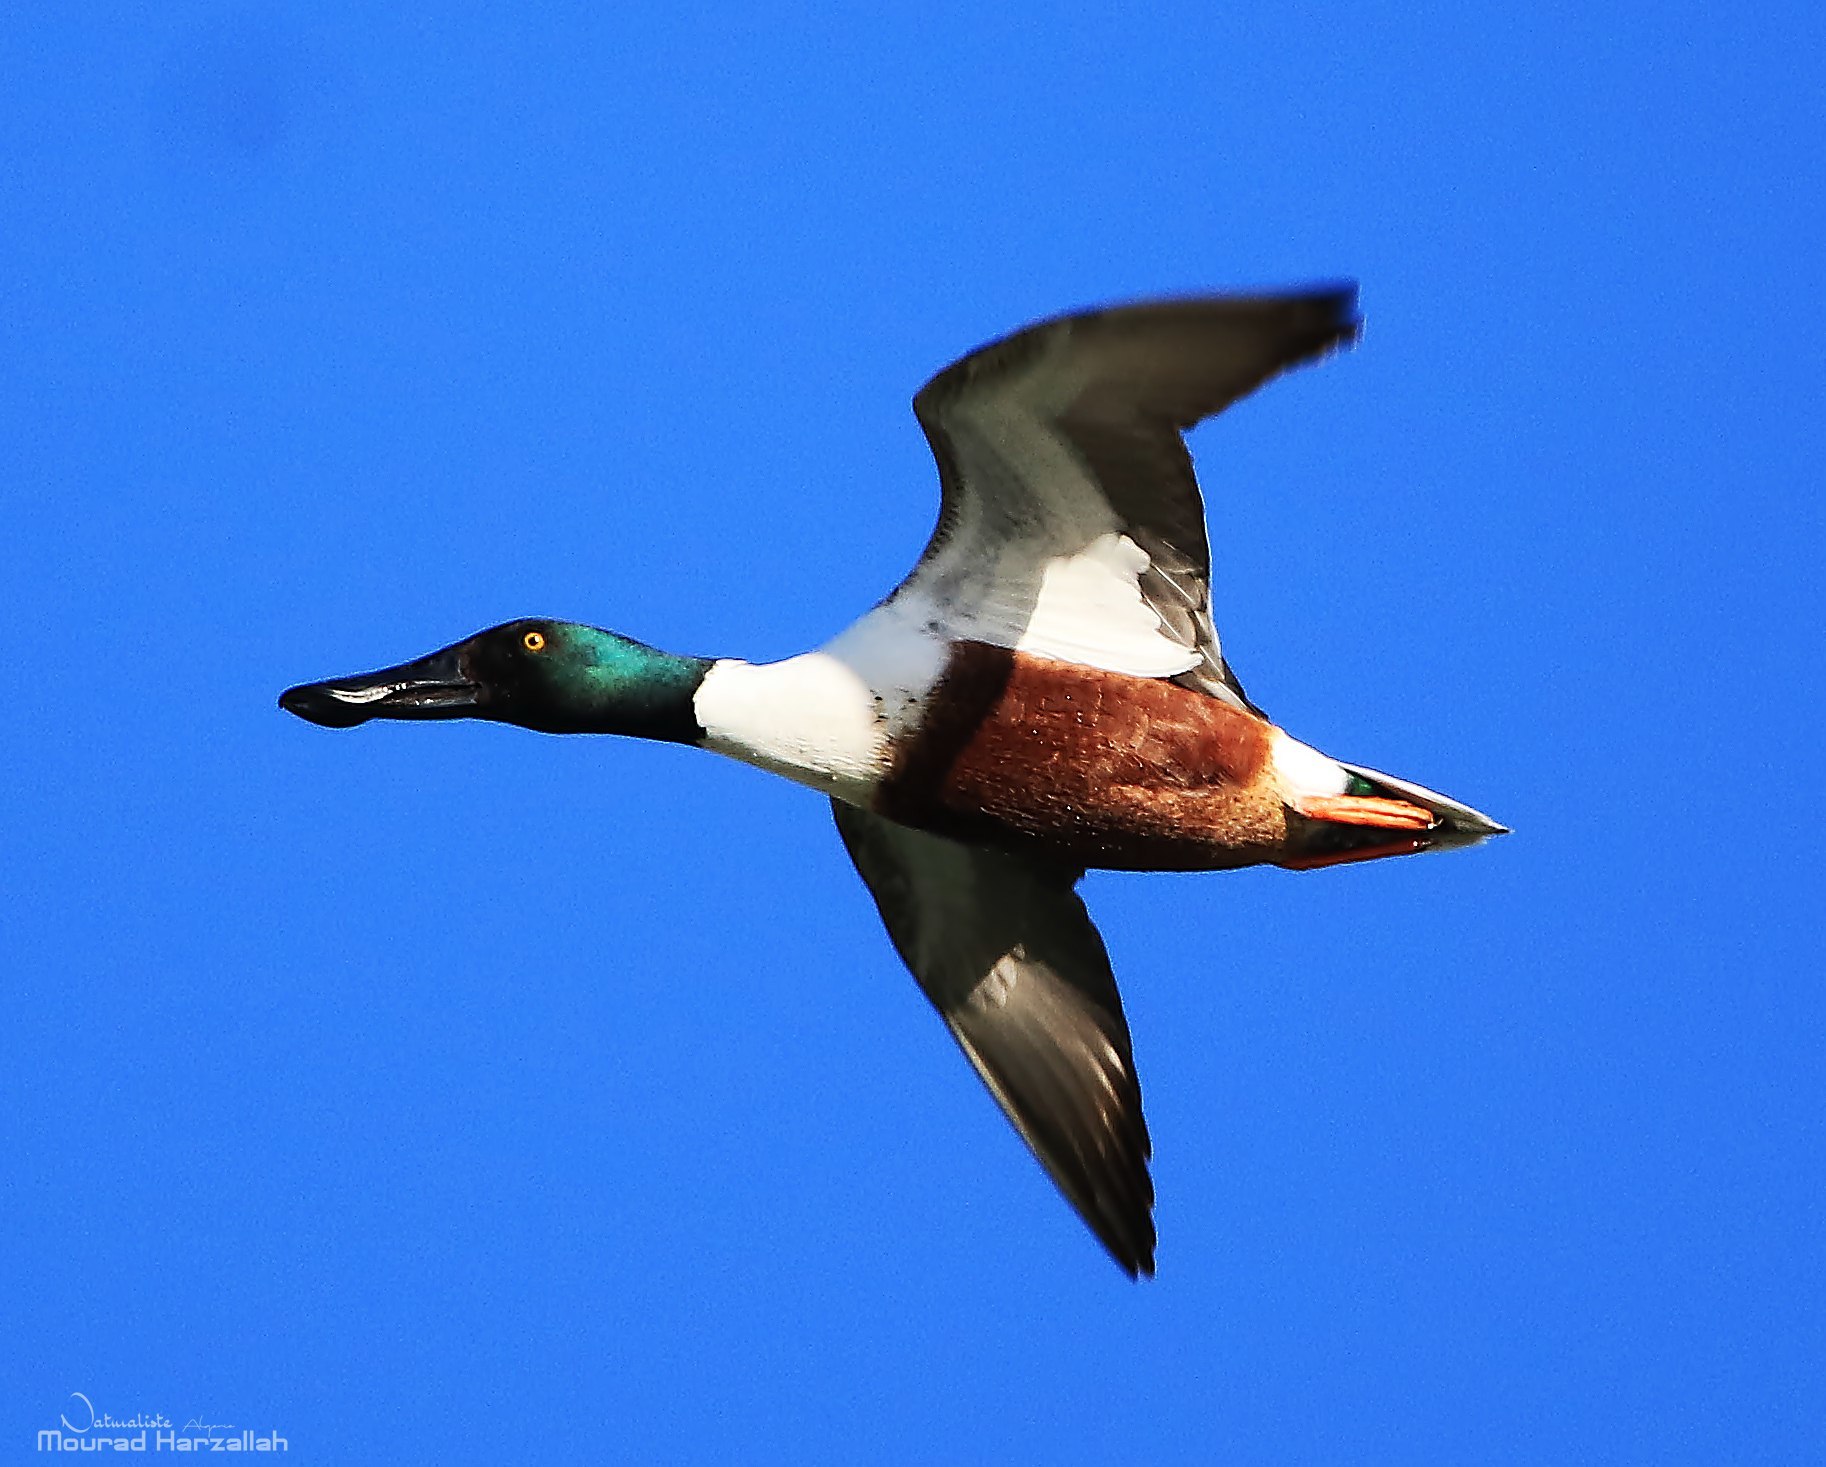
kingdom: Animalia
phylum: Chordata
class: Aves
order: Anseriformes
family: Anatidae
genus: Spatula
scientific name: Spatula clypeata
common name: Northern shoveler
